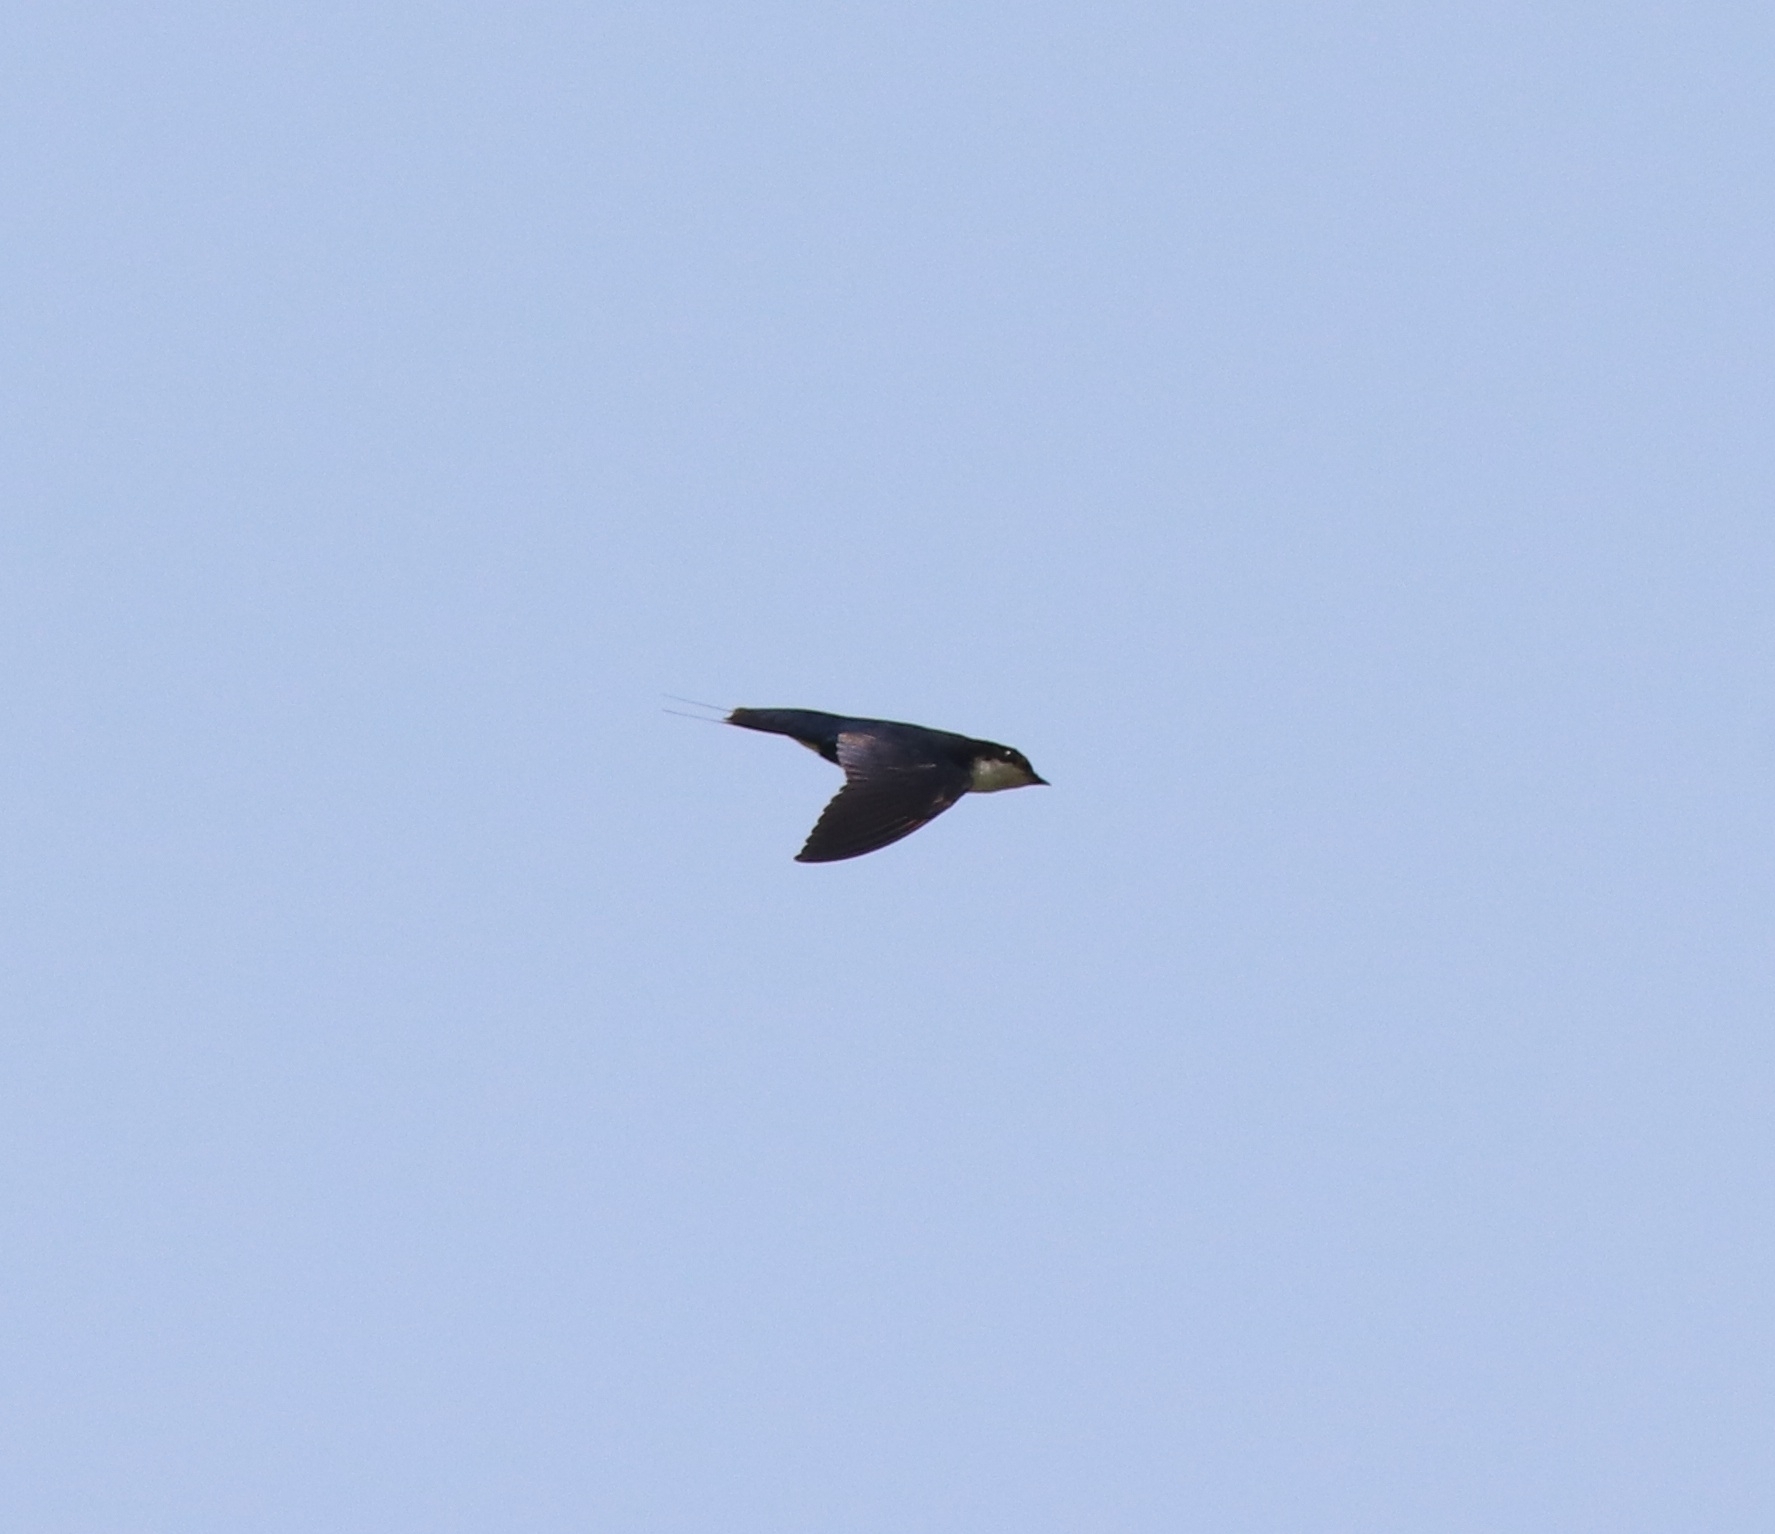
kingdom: Animalia
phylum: Chordata
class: Aves
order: Passeriformes
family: Hirundinidae
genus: Hirundo
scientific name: Hirundo smithii
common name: Wire-tailed swallow
